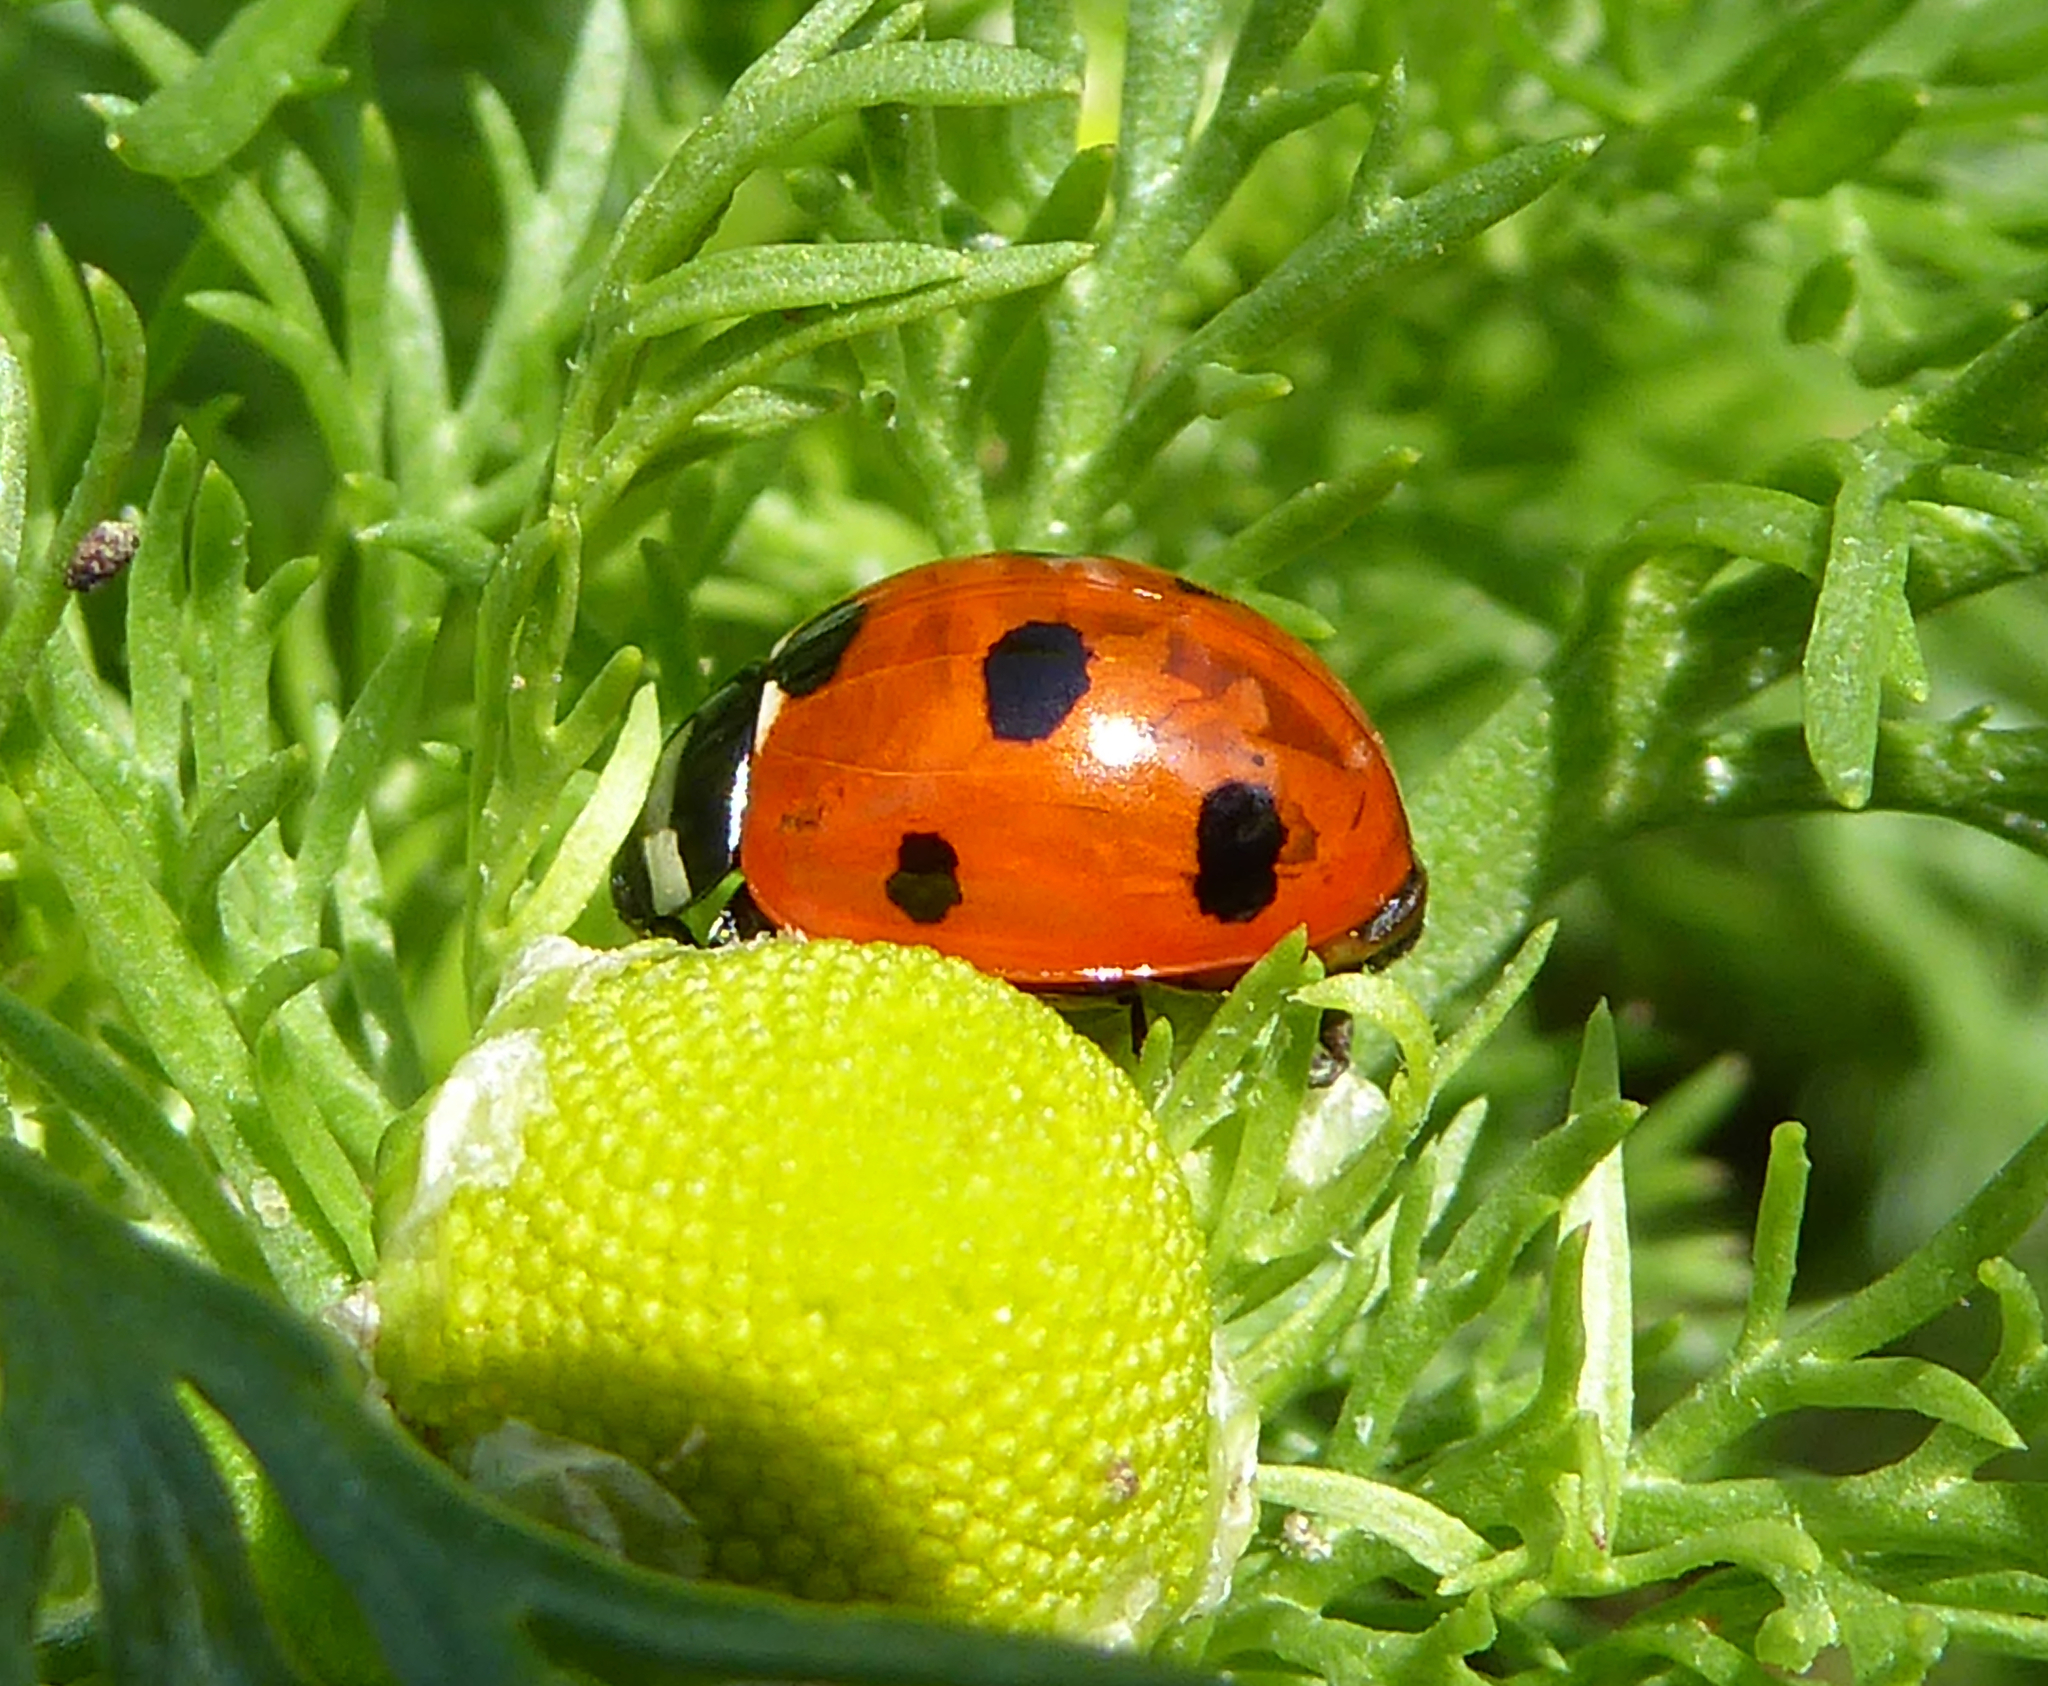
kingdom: Animalia
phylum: Arthropoda
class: Insecta
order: Coleoptera
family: Coccinellidae
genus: Coccinella
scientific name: Coccinella septempunctata
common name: Sevenspotted lady beetle
